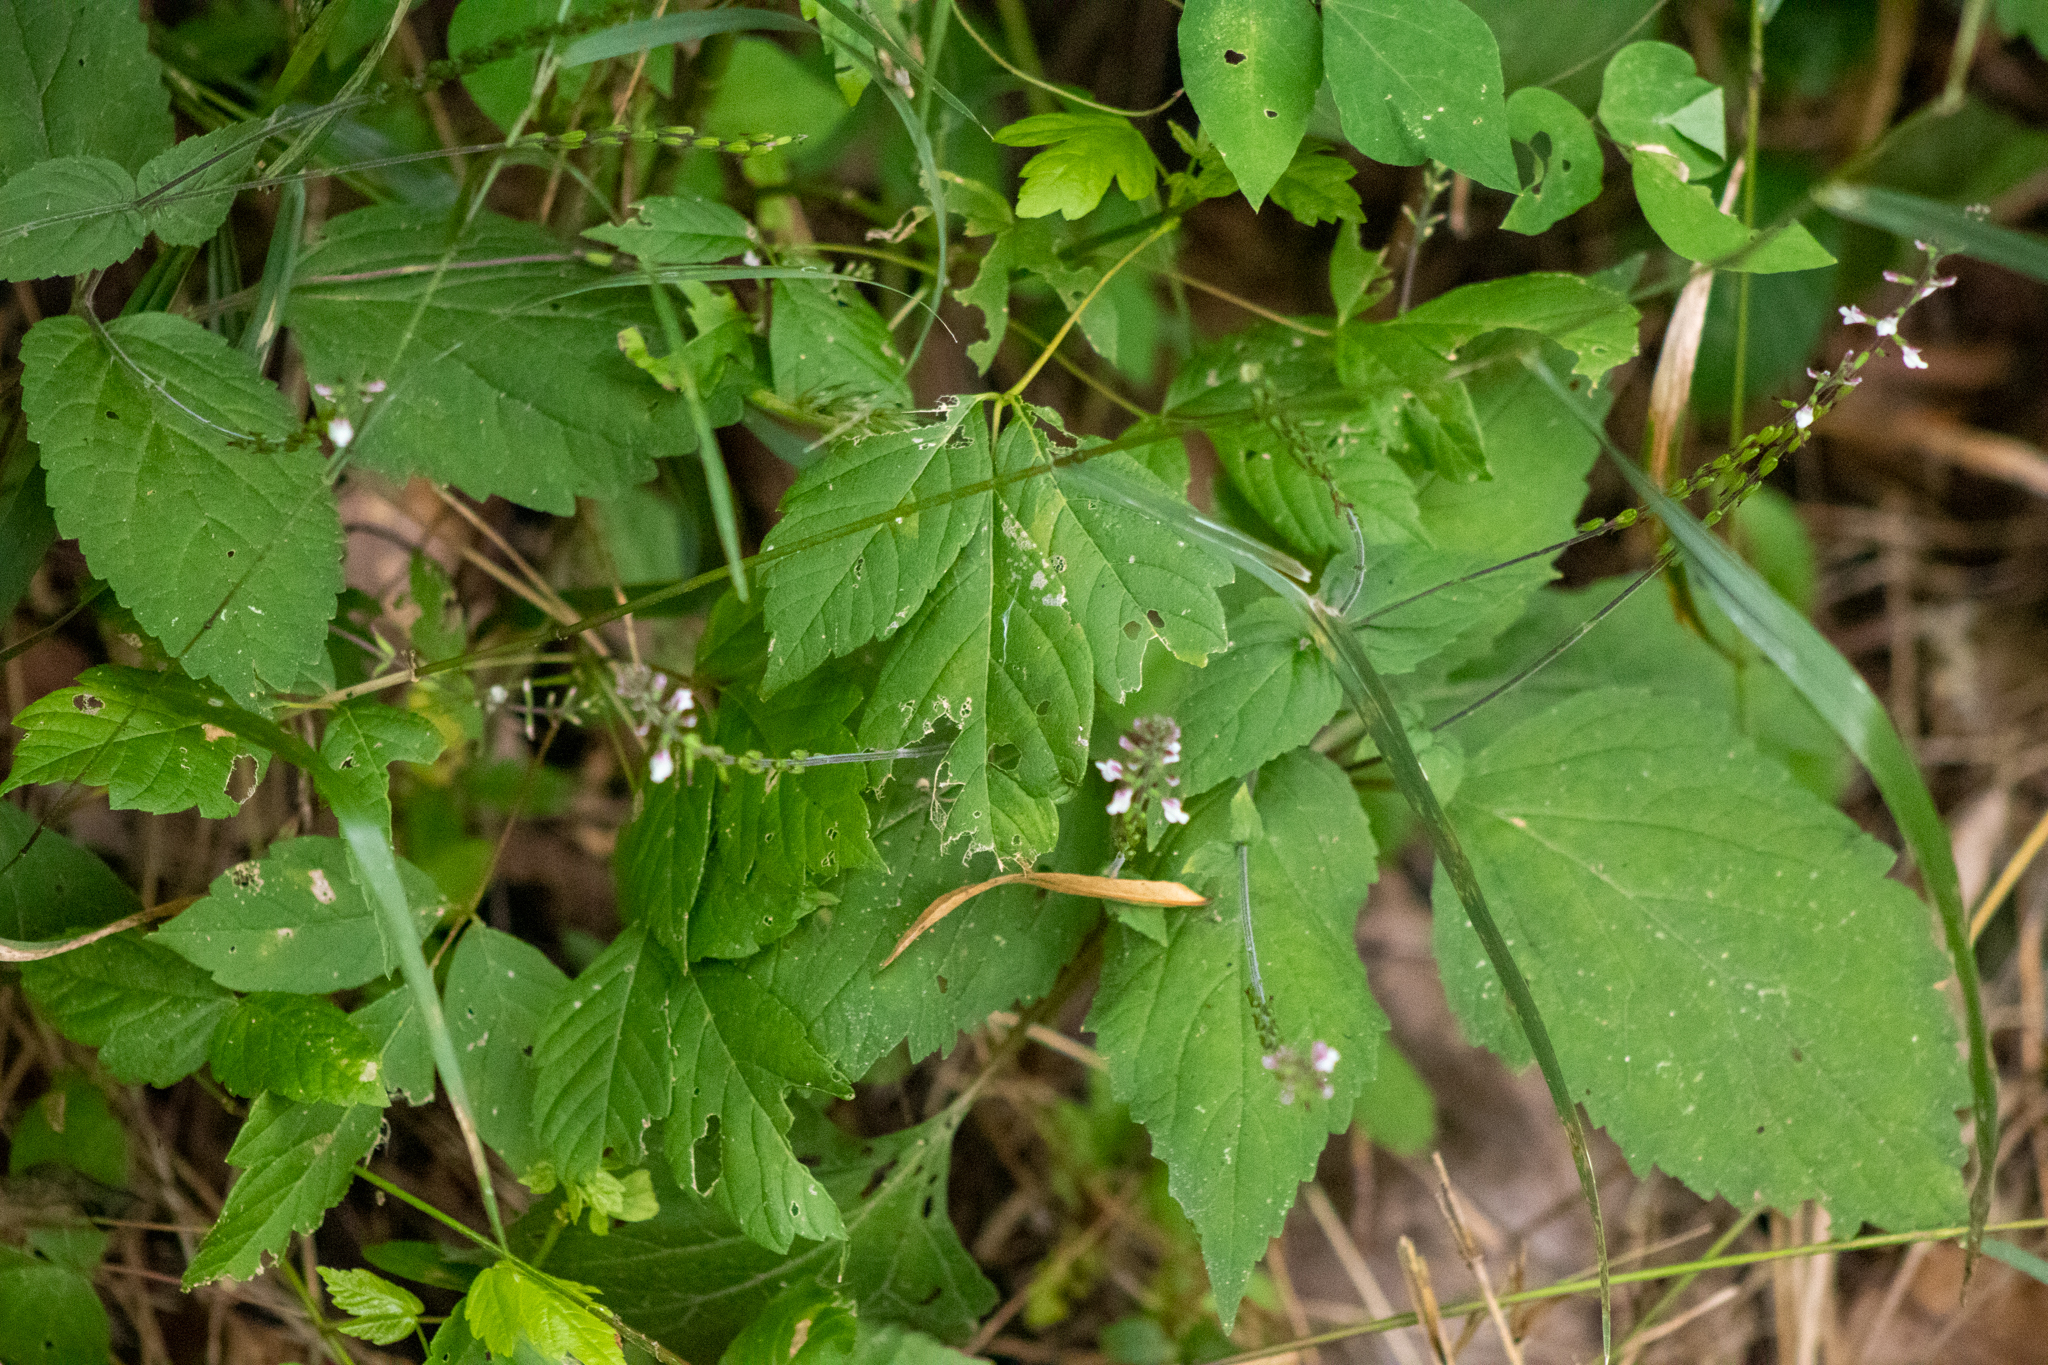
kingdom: Plantae
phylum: Tracheophyta
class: Magnoliopsida
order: Lamiales
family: Phrymaceae
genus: Phryma
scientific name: Phryma leptostachya
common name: American lopseed
